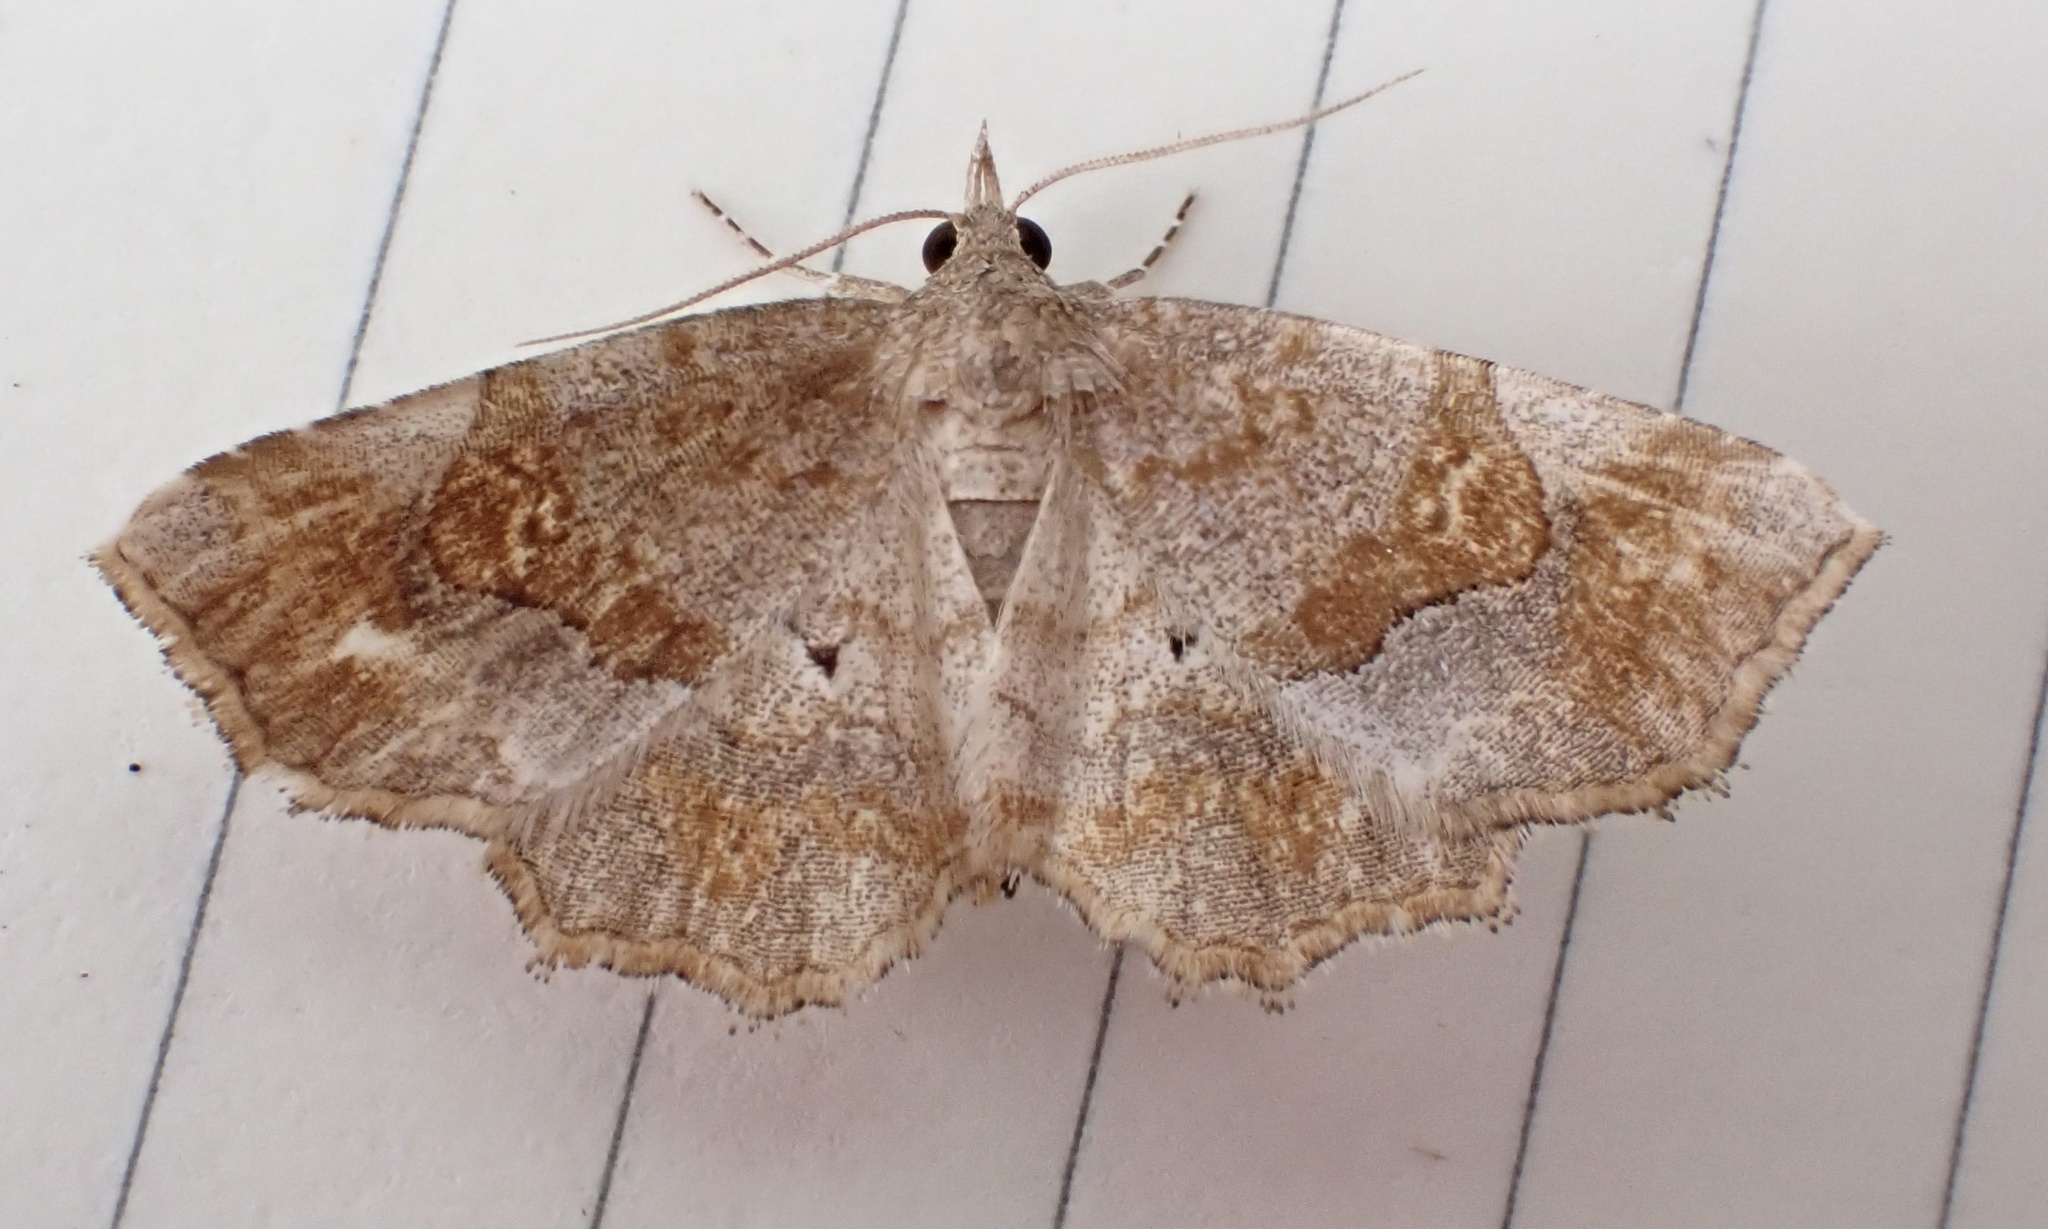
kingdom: Animalia
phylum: Arthropoda
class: Insecta
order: Lepidoptera
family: Erebidae
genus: Pangrapta
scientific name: Pangrapta decoralis
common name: Decorated owlet
